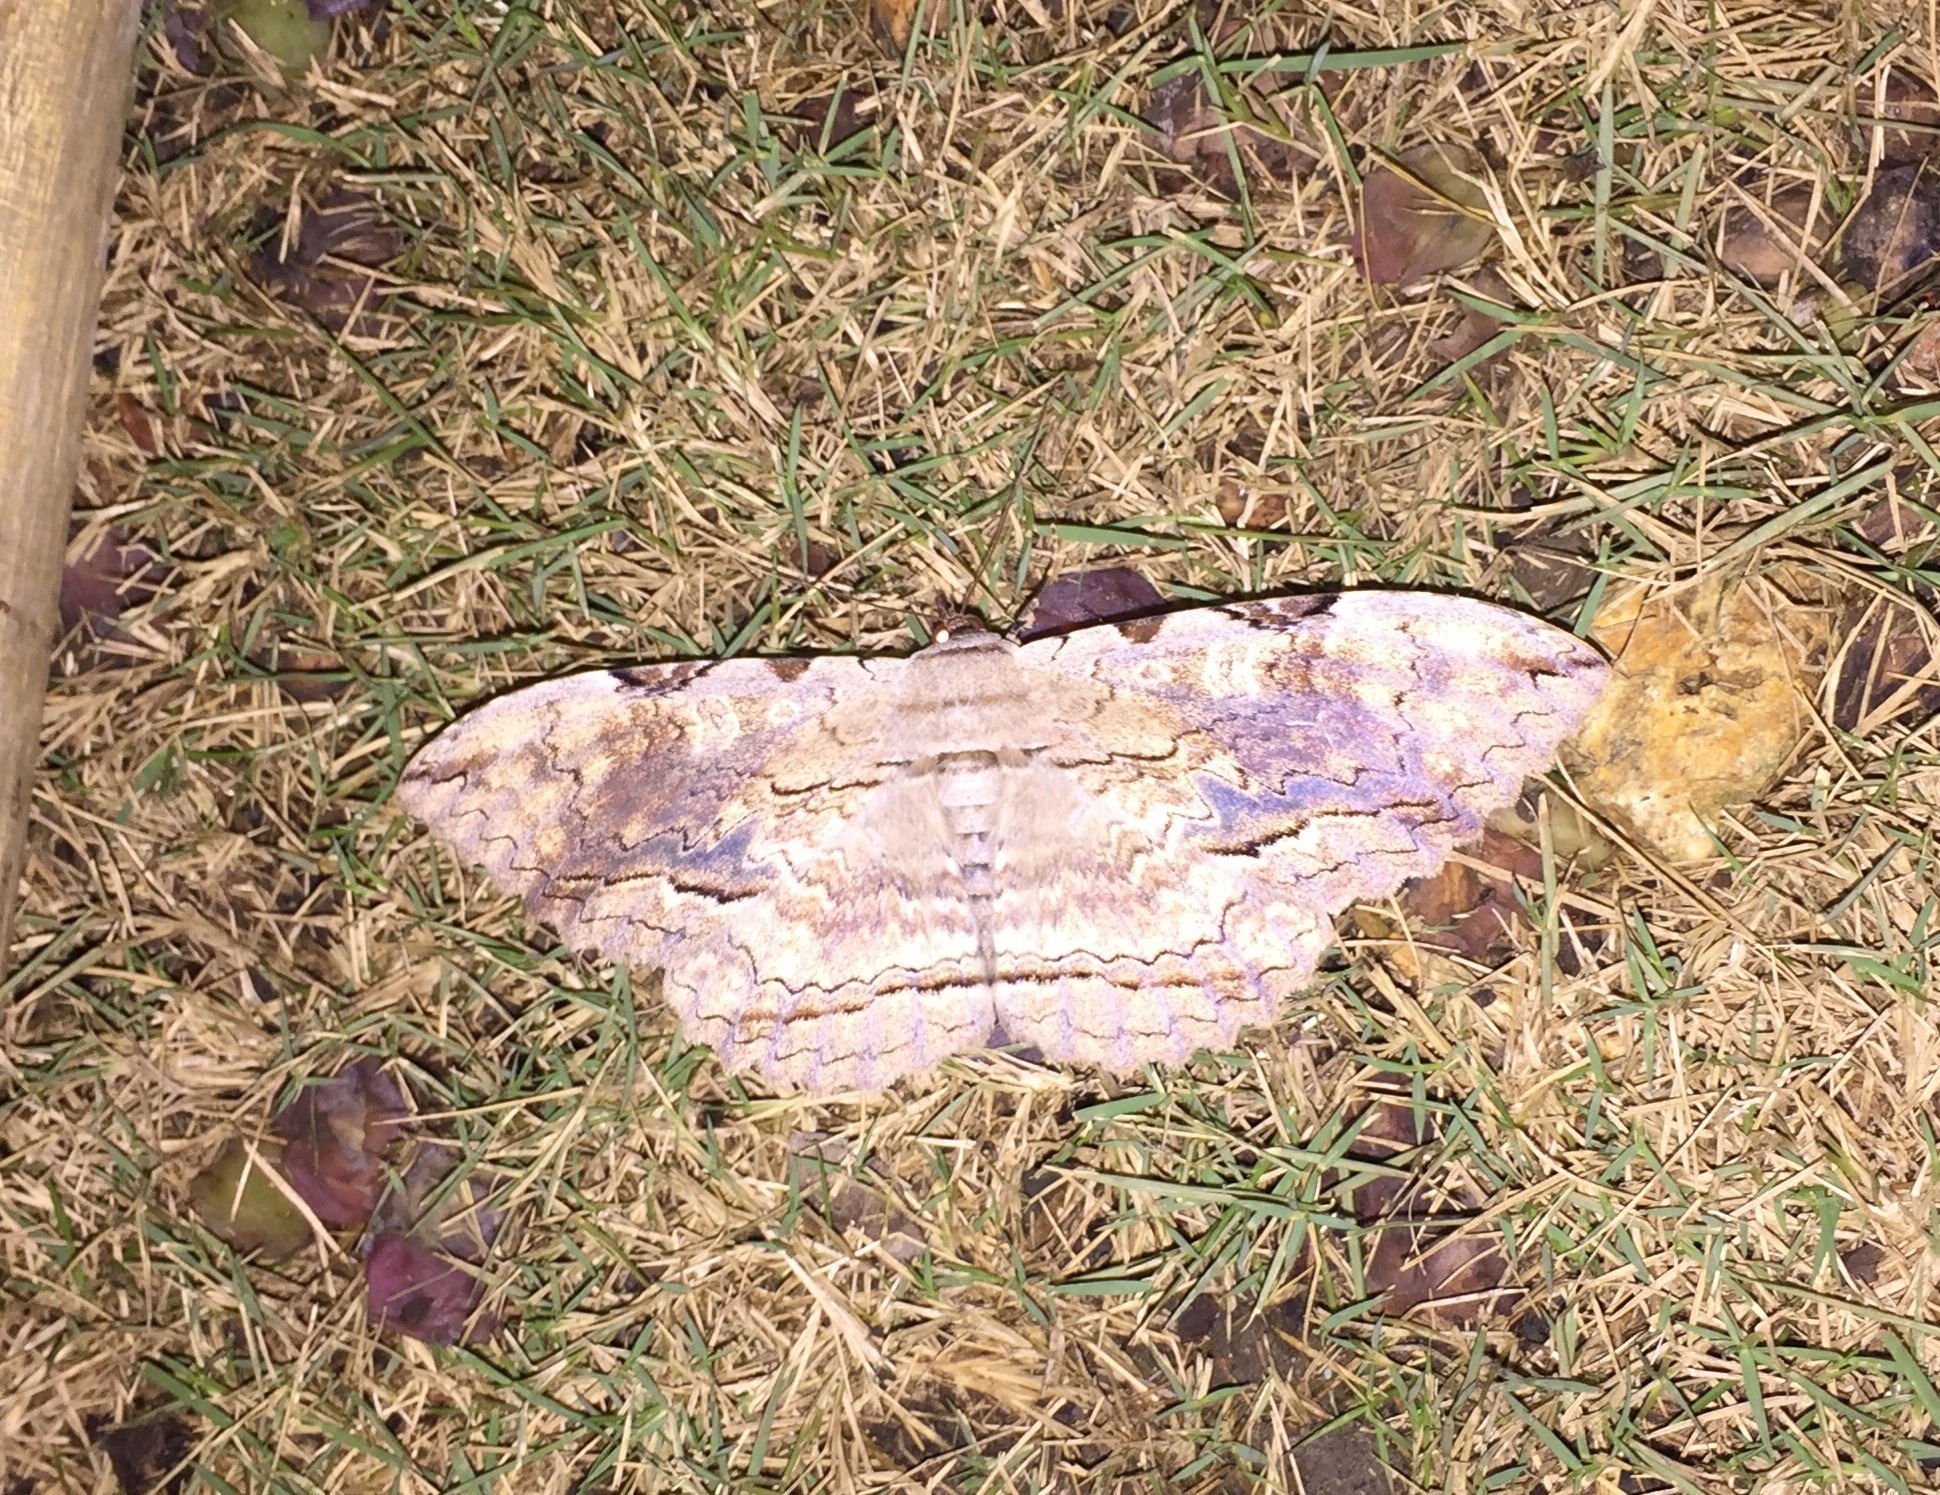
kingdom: Animalia
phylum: Arthropoda
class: Insecta
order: Lepidoptera
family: Erebidae
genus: Thysania
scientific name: Thysania zenobia
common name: Owl moth
